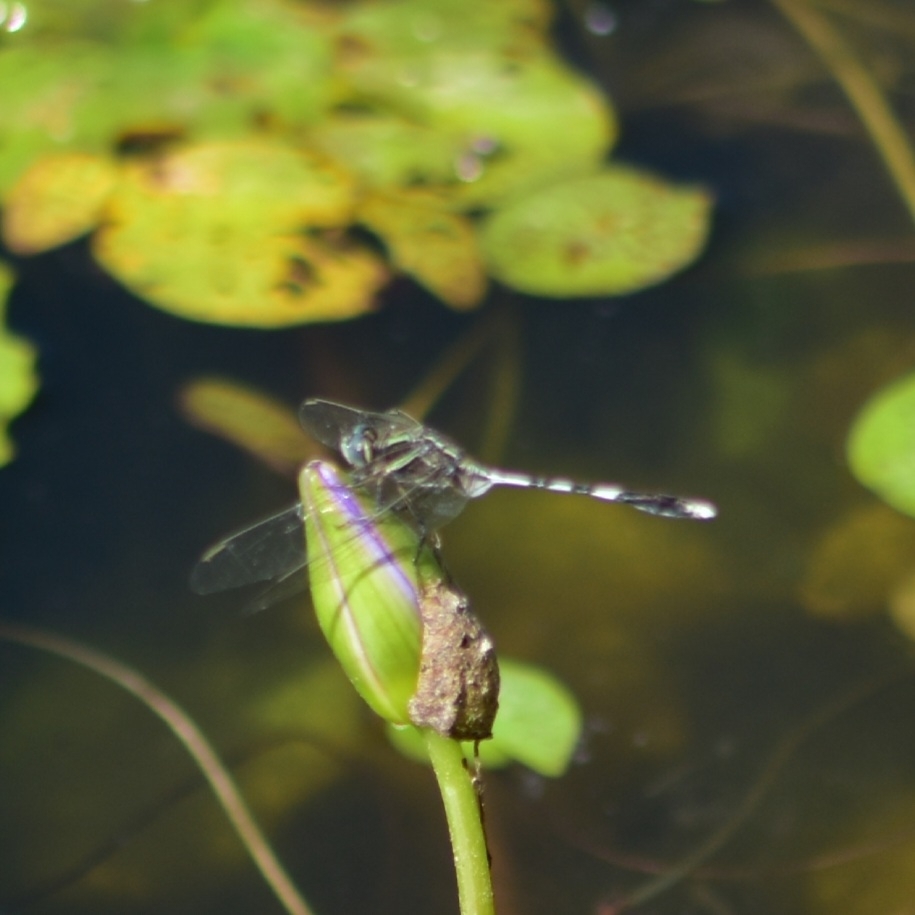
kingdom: Animalia
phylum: Arthropoda
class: Insecta
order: Odonata
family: Libellulidae
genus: Orthetrum
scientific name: Orthetrum sabina
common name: Slender skimmer
